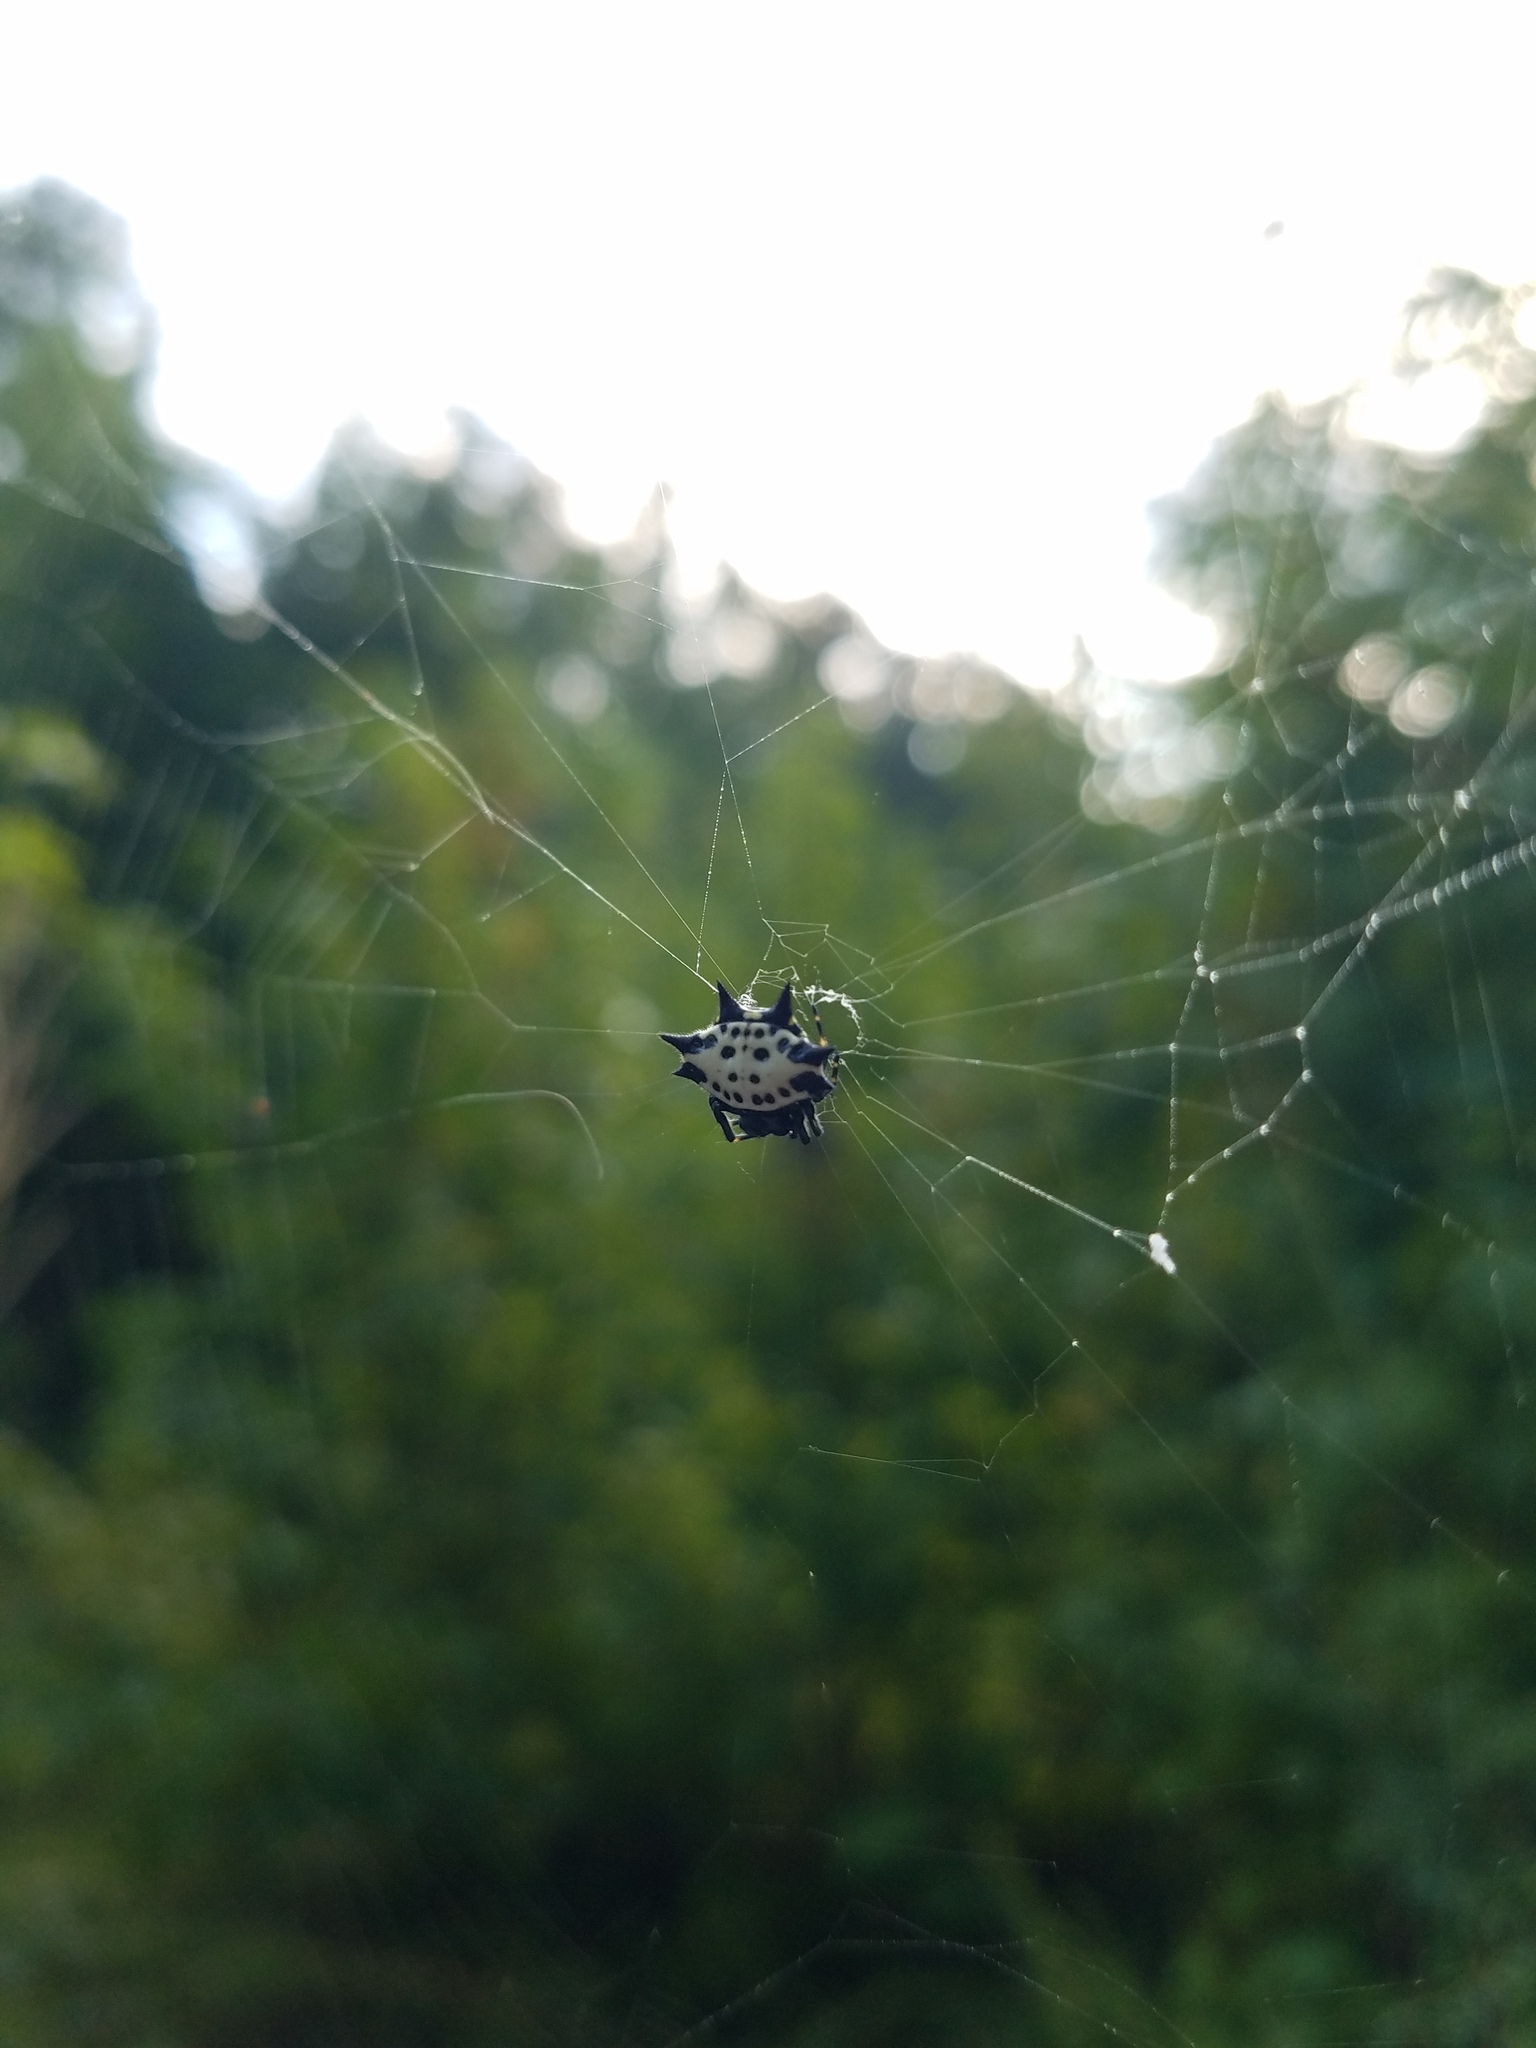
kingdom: Animalia
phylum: Arthropoda
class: Arachnida
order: Araneae
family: Araneidae
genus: Gasteracantha
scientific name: Gasteracantha cancriformis
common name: Orb weavers
